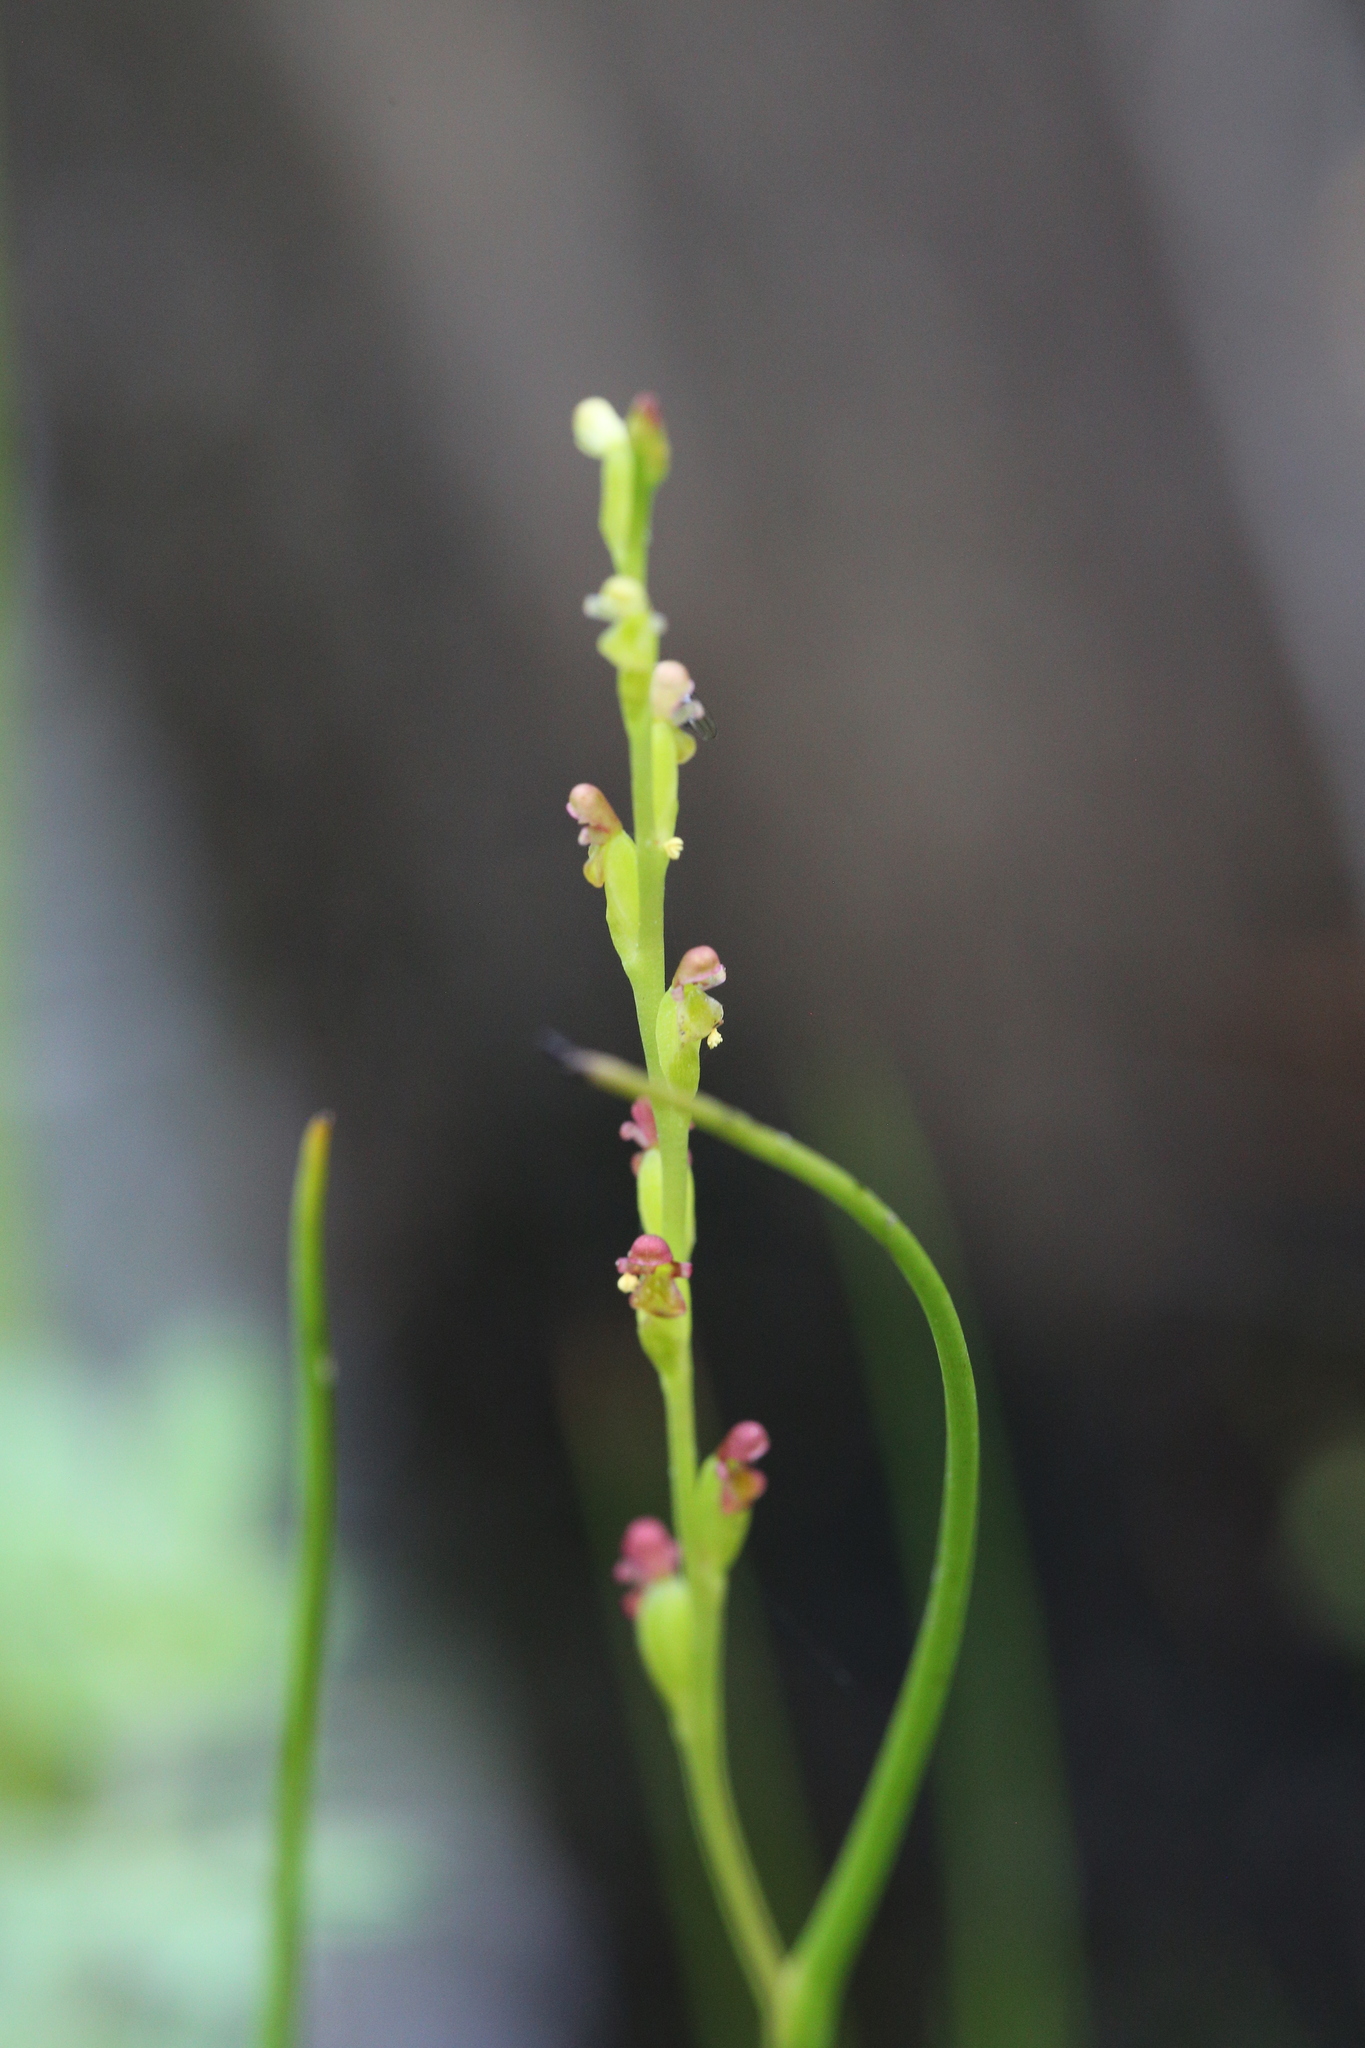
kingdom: Plantae
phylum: Tracheophyta
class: Liliopsida
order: Asparagales
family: Orchidaceae
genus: Microtis
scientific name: Microtis orbicularis
